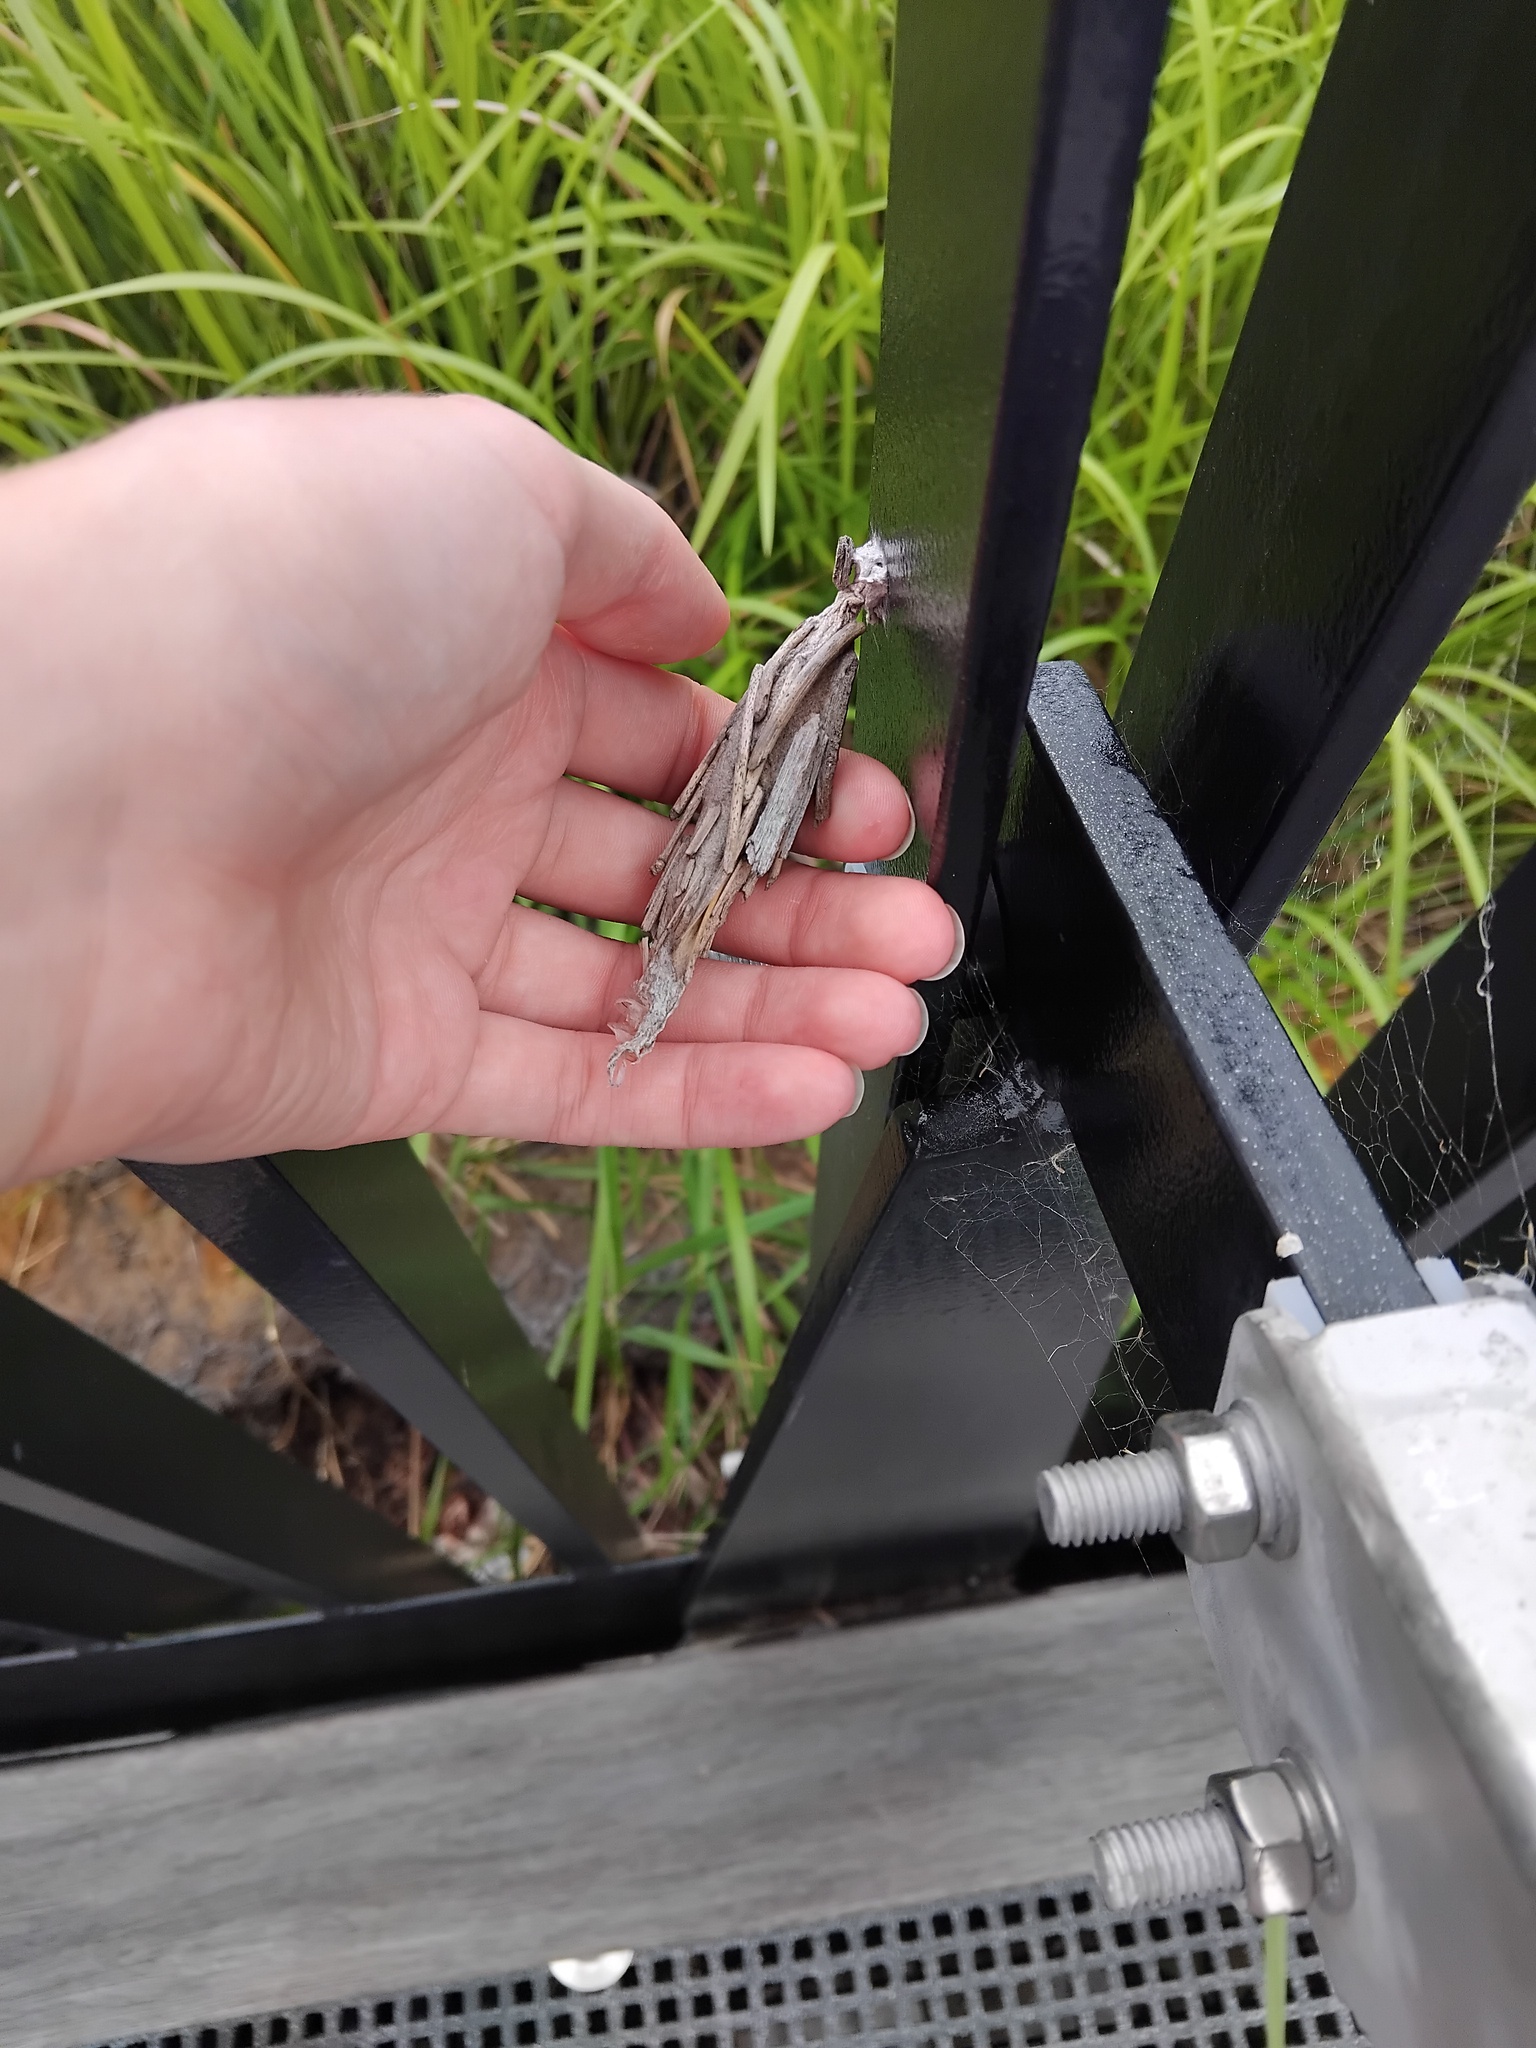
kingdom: Animalia
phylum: Arthropoda
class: Insecta
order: Lepidoptera
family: Psychidae
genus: Metura
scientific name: Metura elongatus
